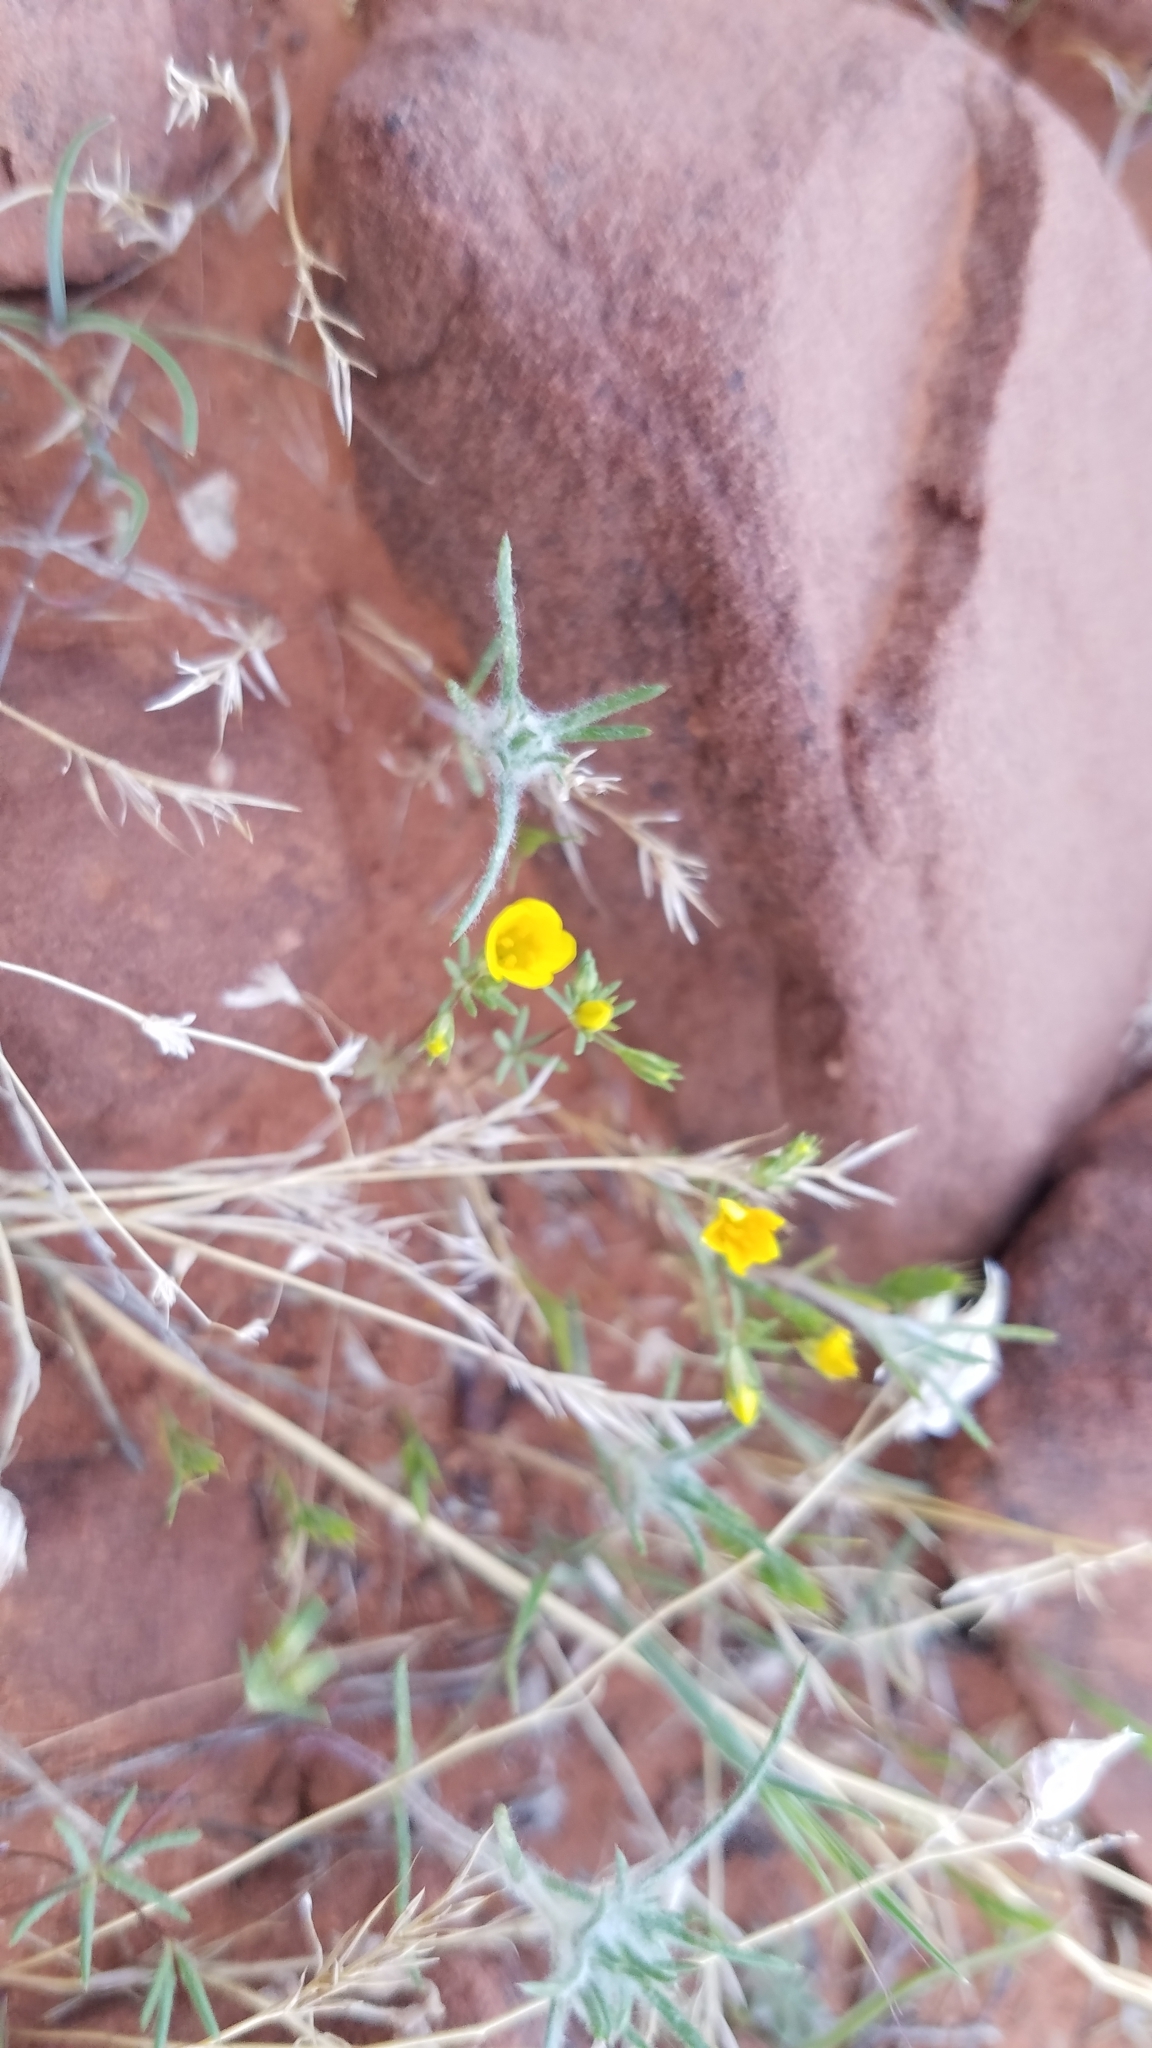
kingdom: Plantae
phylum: Tracheophyta
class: Magnoliopsida
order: Ericales
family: Polemoniaceae
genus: Leptosiphon
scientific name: Leptosiphon chrysanthus
